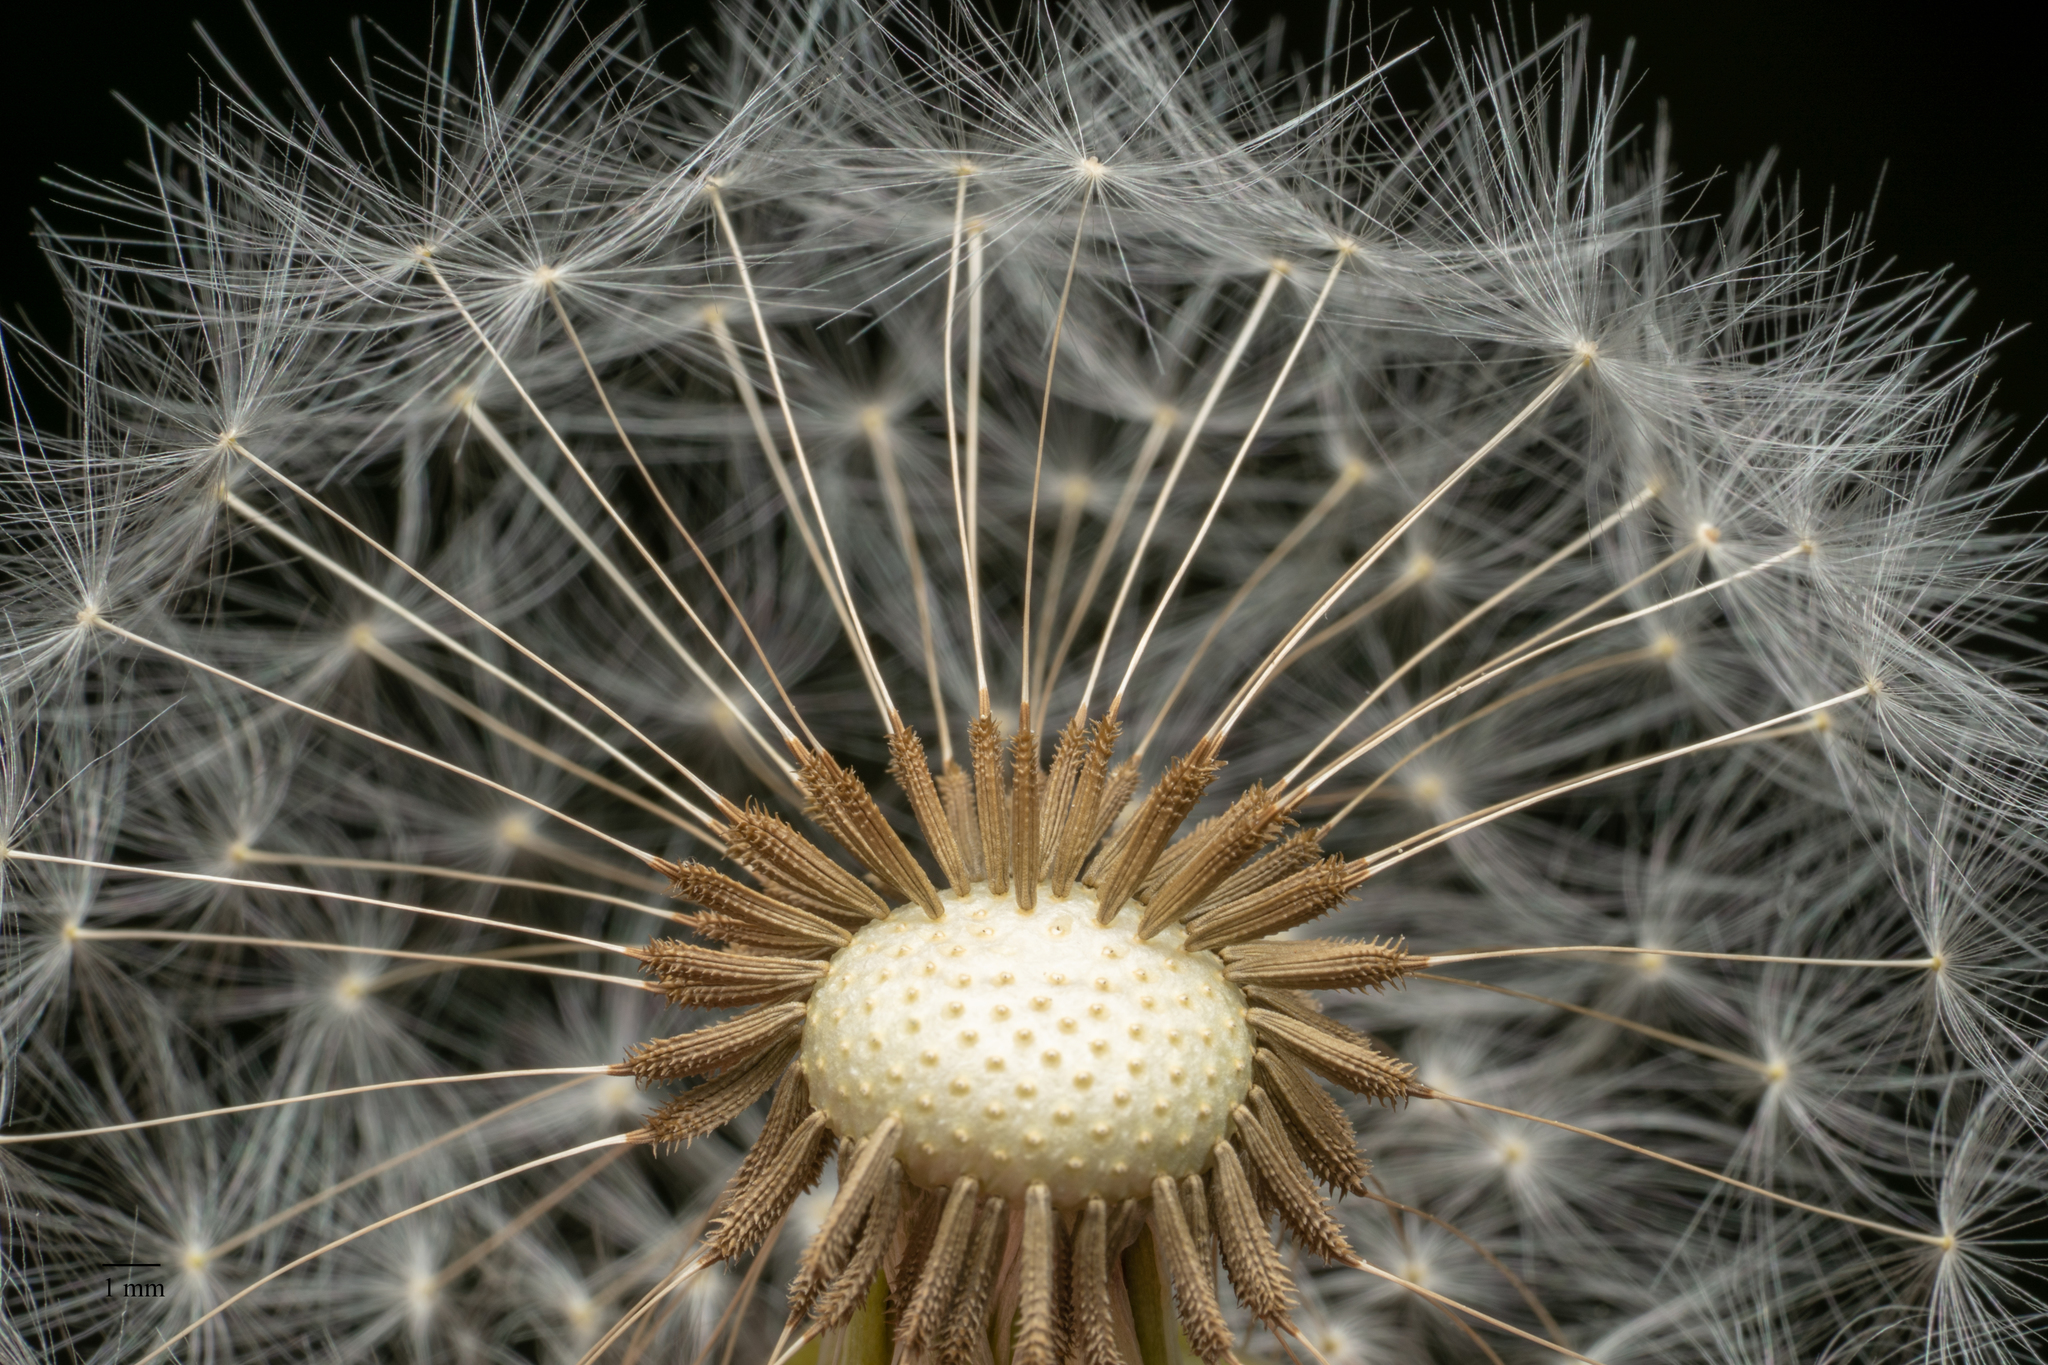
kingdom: Plantae
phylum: Tracheophyta
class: Magnoliopsida
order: Asterales
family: Asteraceae
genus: Taraxacum
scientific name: Taraxacum officinale
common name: Common dandelion
